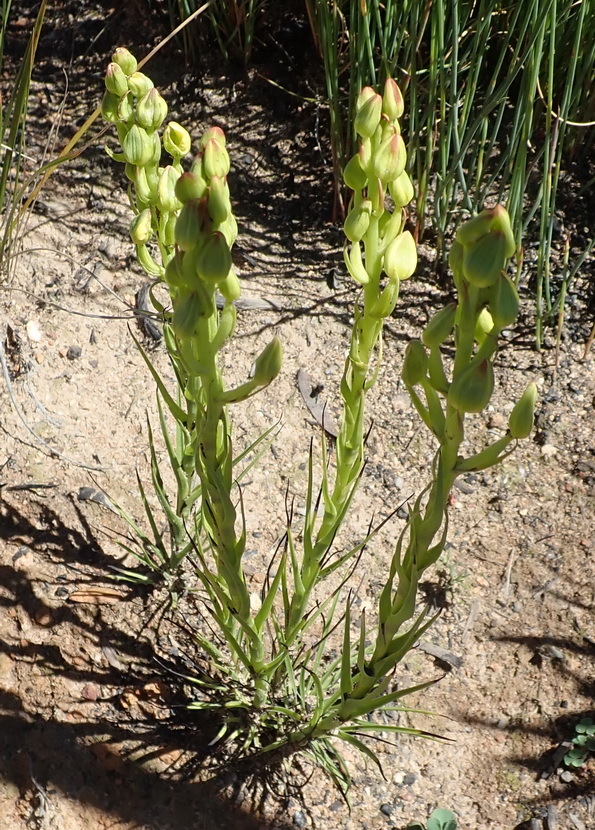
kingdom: Plantae
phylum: Tracheophyta
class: Liliopsida
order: Asparagales
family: Orchidaceae
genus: Ceratandra
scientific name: Ceratandra atrata
